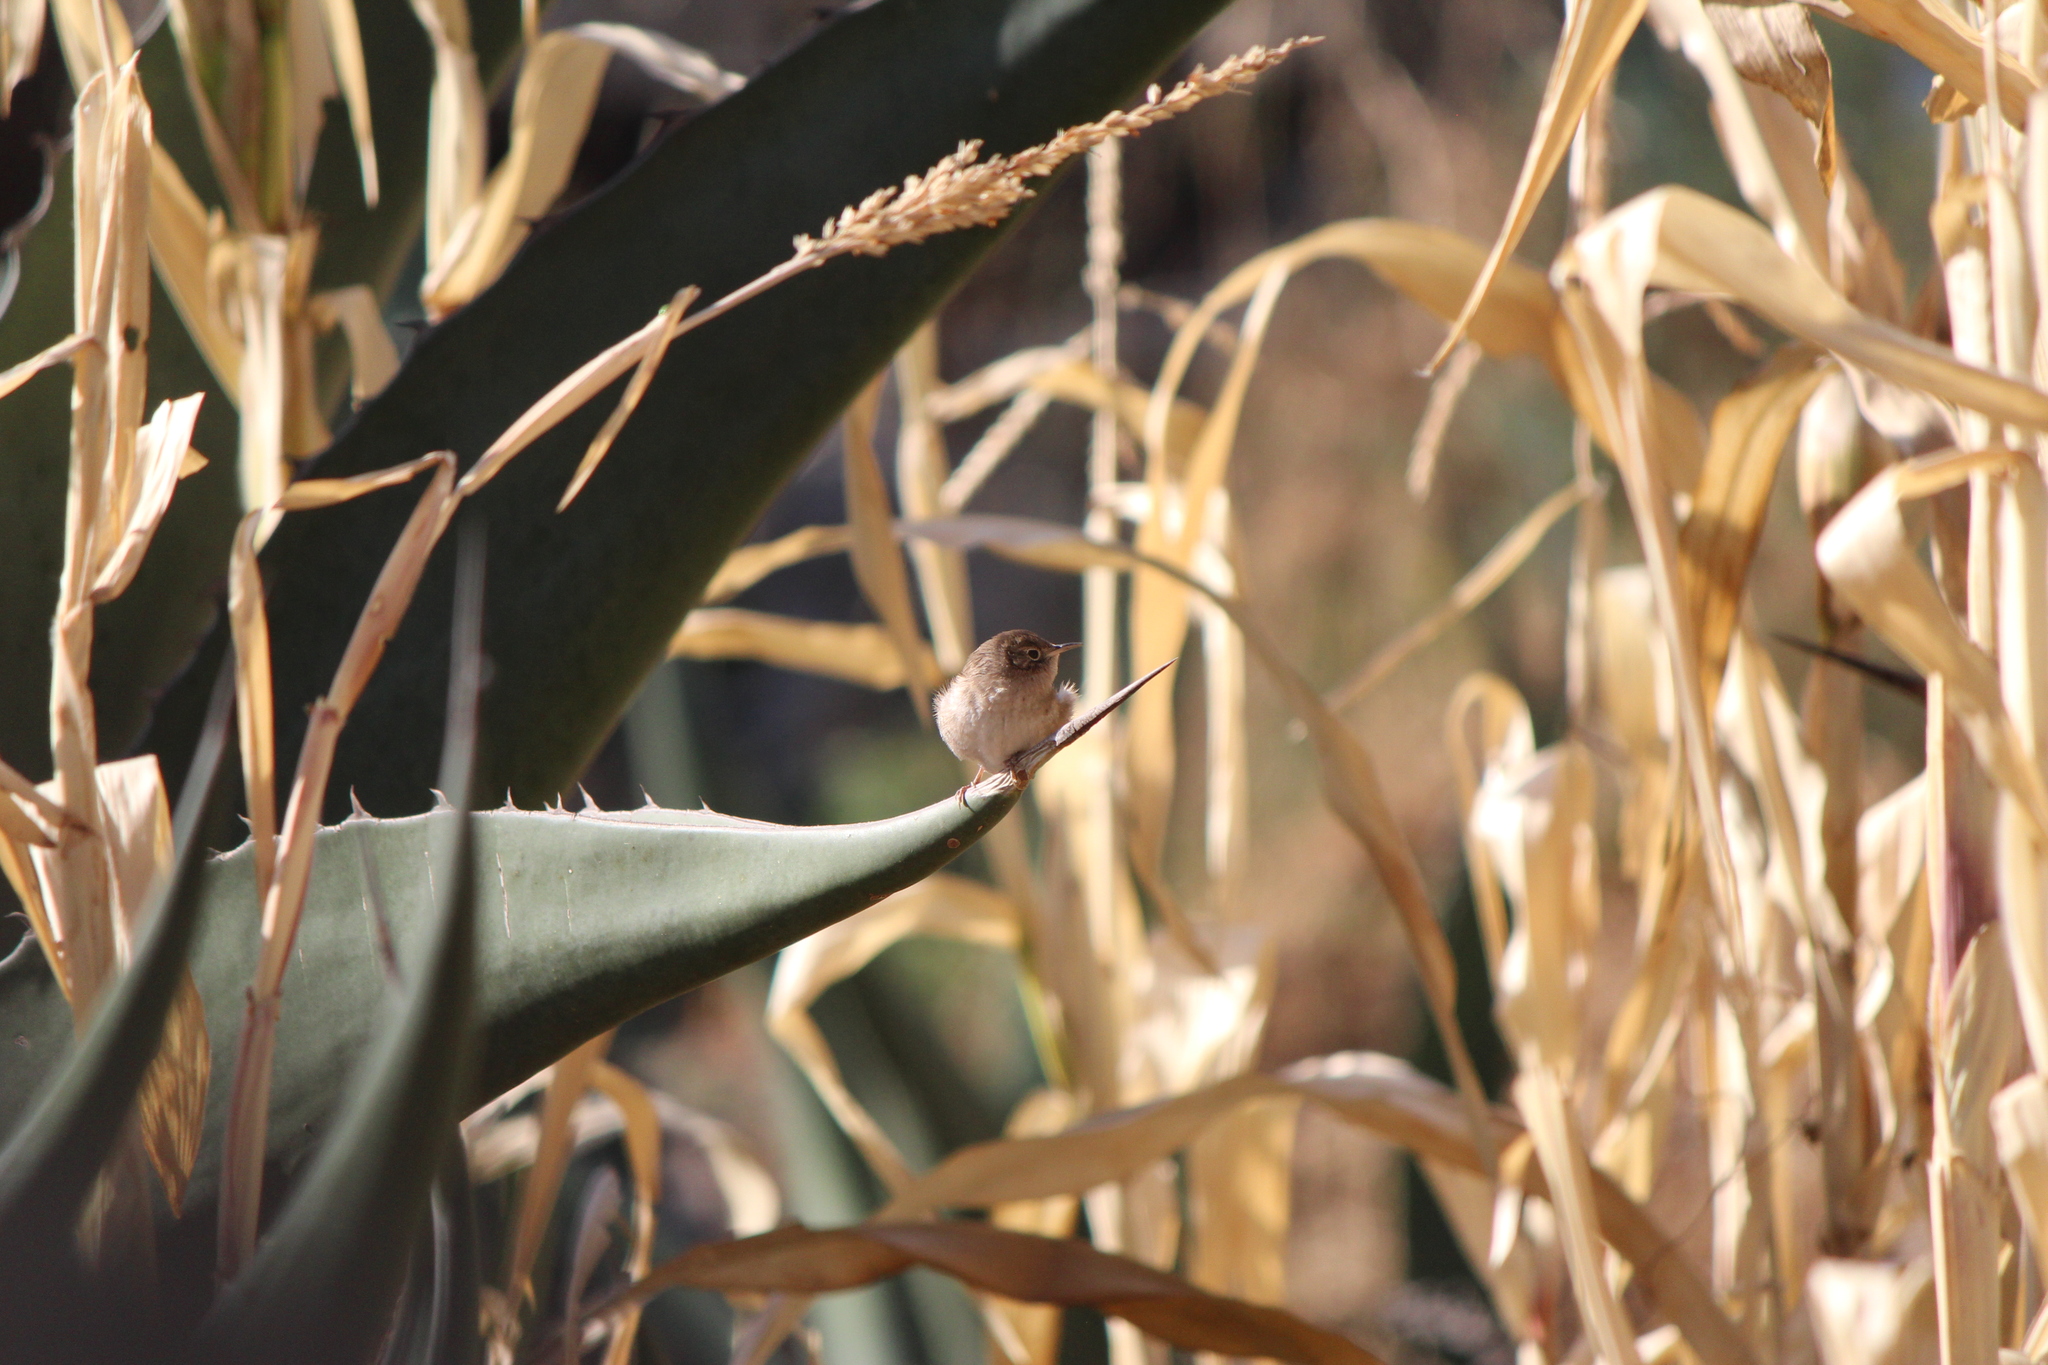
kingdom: Animalia
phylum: Chordata
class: Aves
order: Passeriformes
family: Troglodytidae
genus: Troglodytes
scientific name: Troglodytes aedon
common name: House wren
